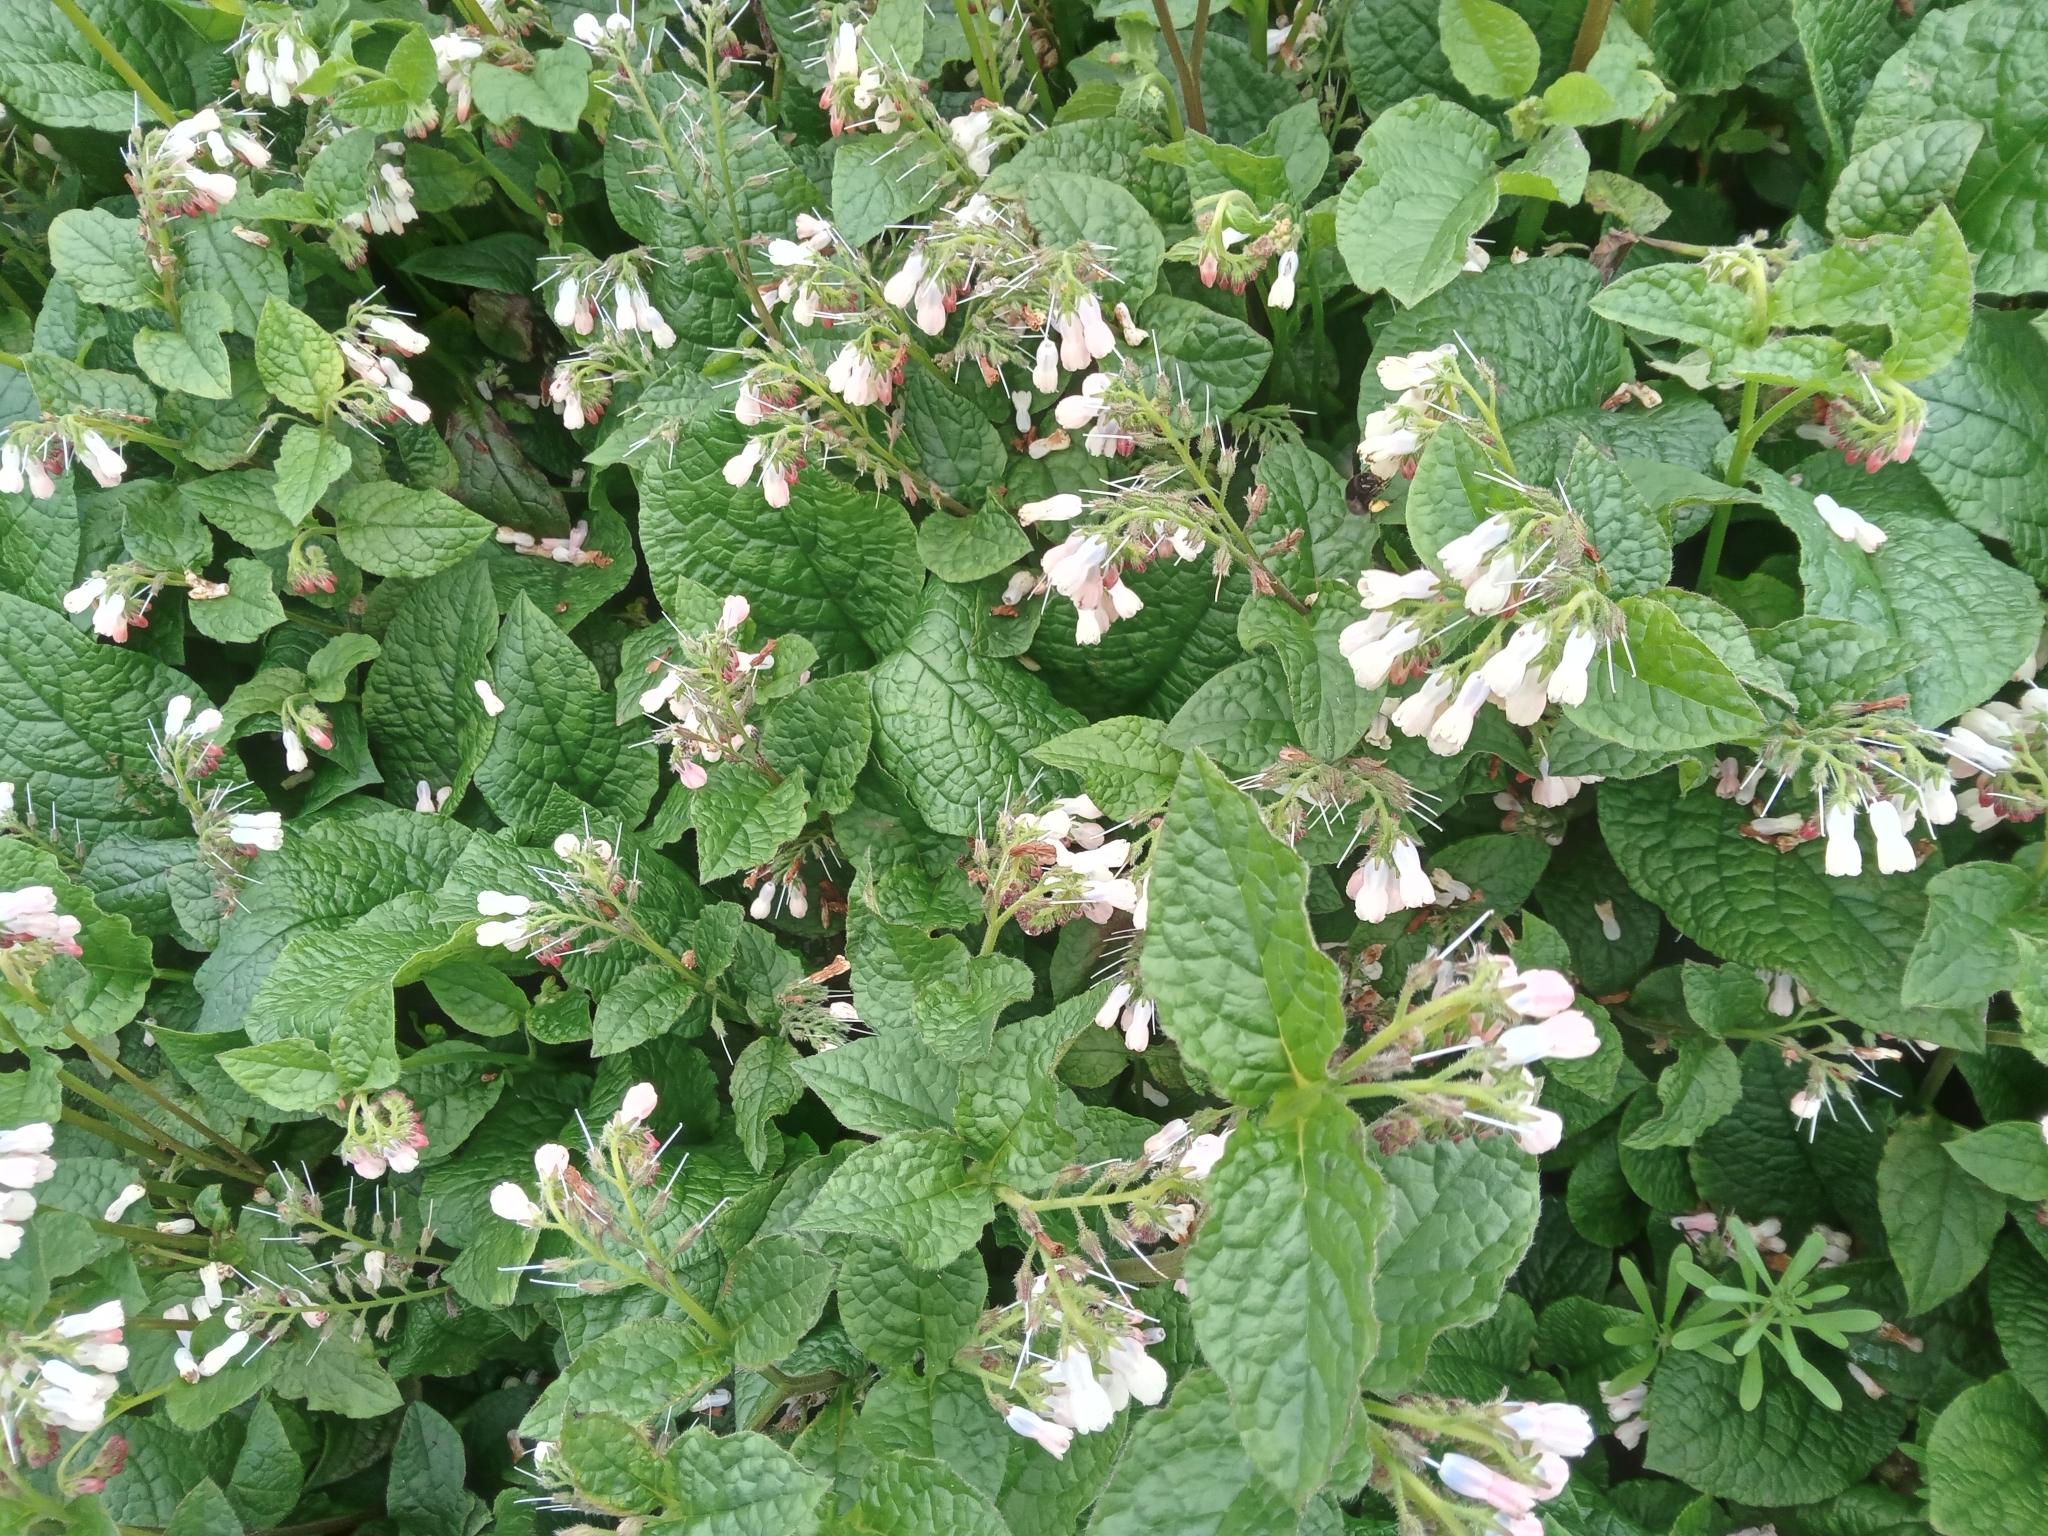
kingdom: Plantae
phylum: Tracheophyta
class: Magnoliopsida
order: Boraginales
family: Boraginaceae
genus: Symphytum
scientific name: Symphytum hidcotense
